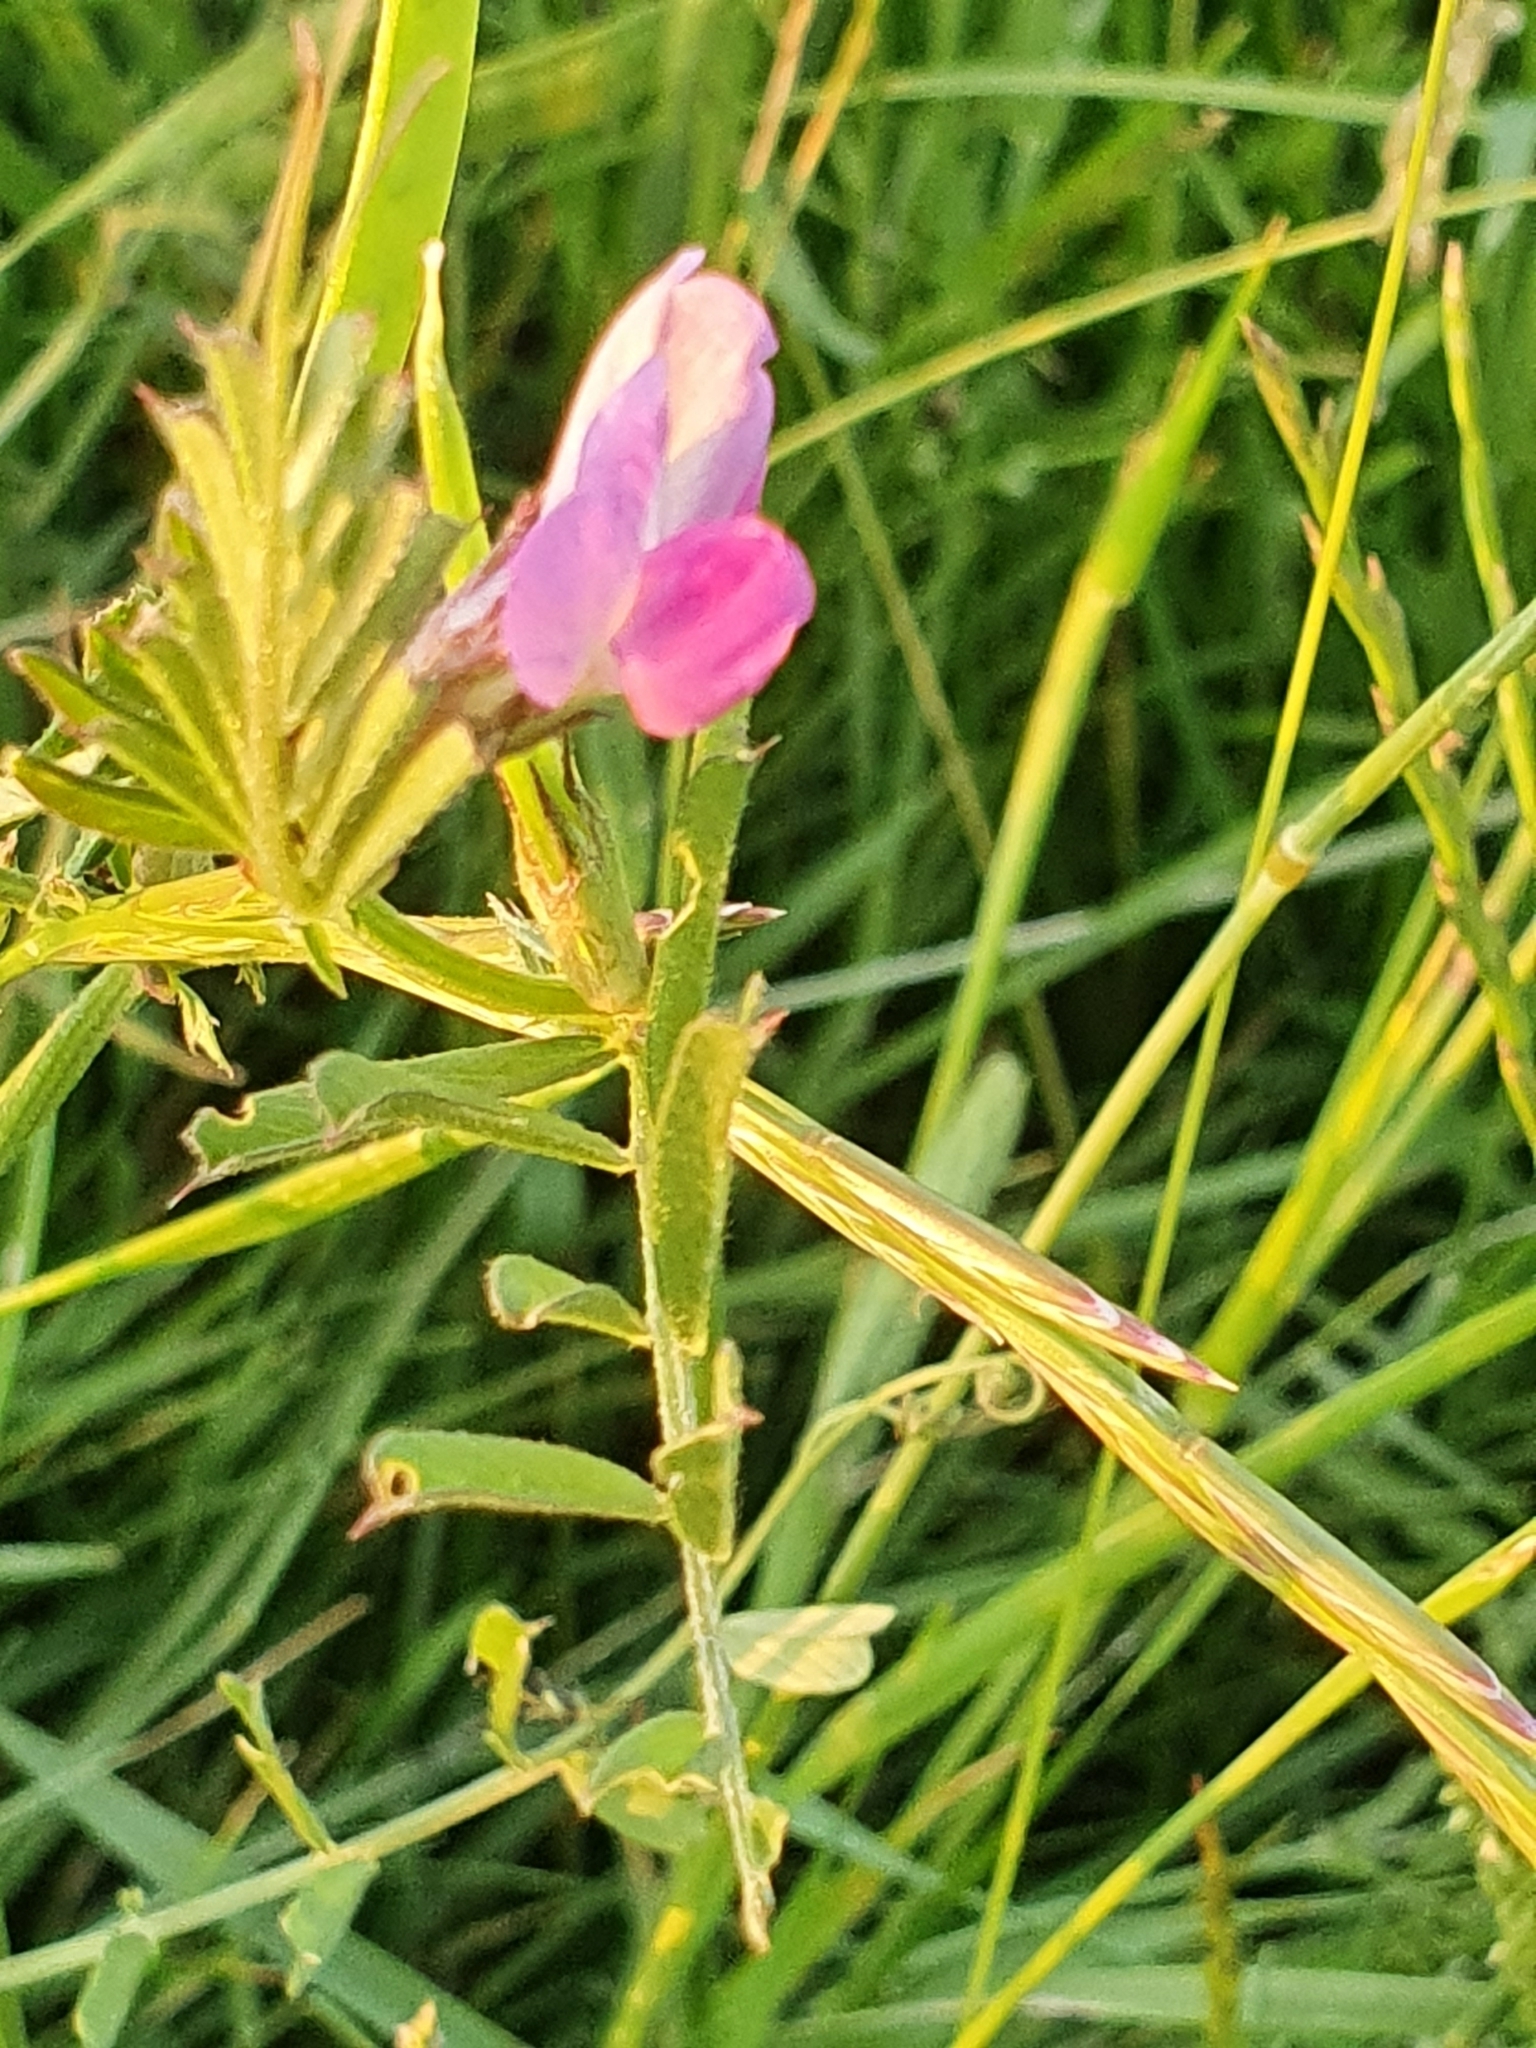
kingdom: Plantae
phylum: Tracheophyta
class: Magnoliopsida
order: Fabales
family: Fabaceae
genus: Vicia
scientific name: Vicia sativa
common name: Garden vetch
